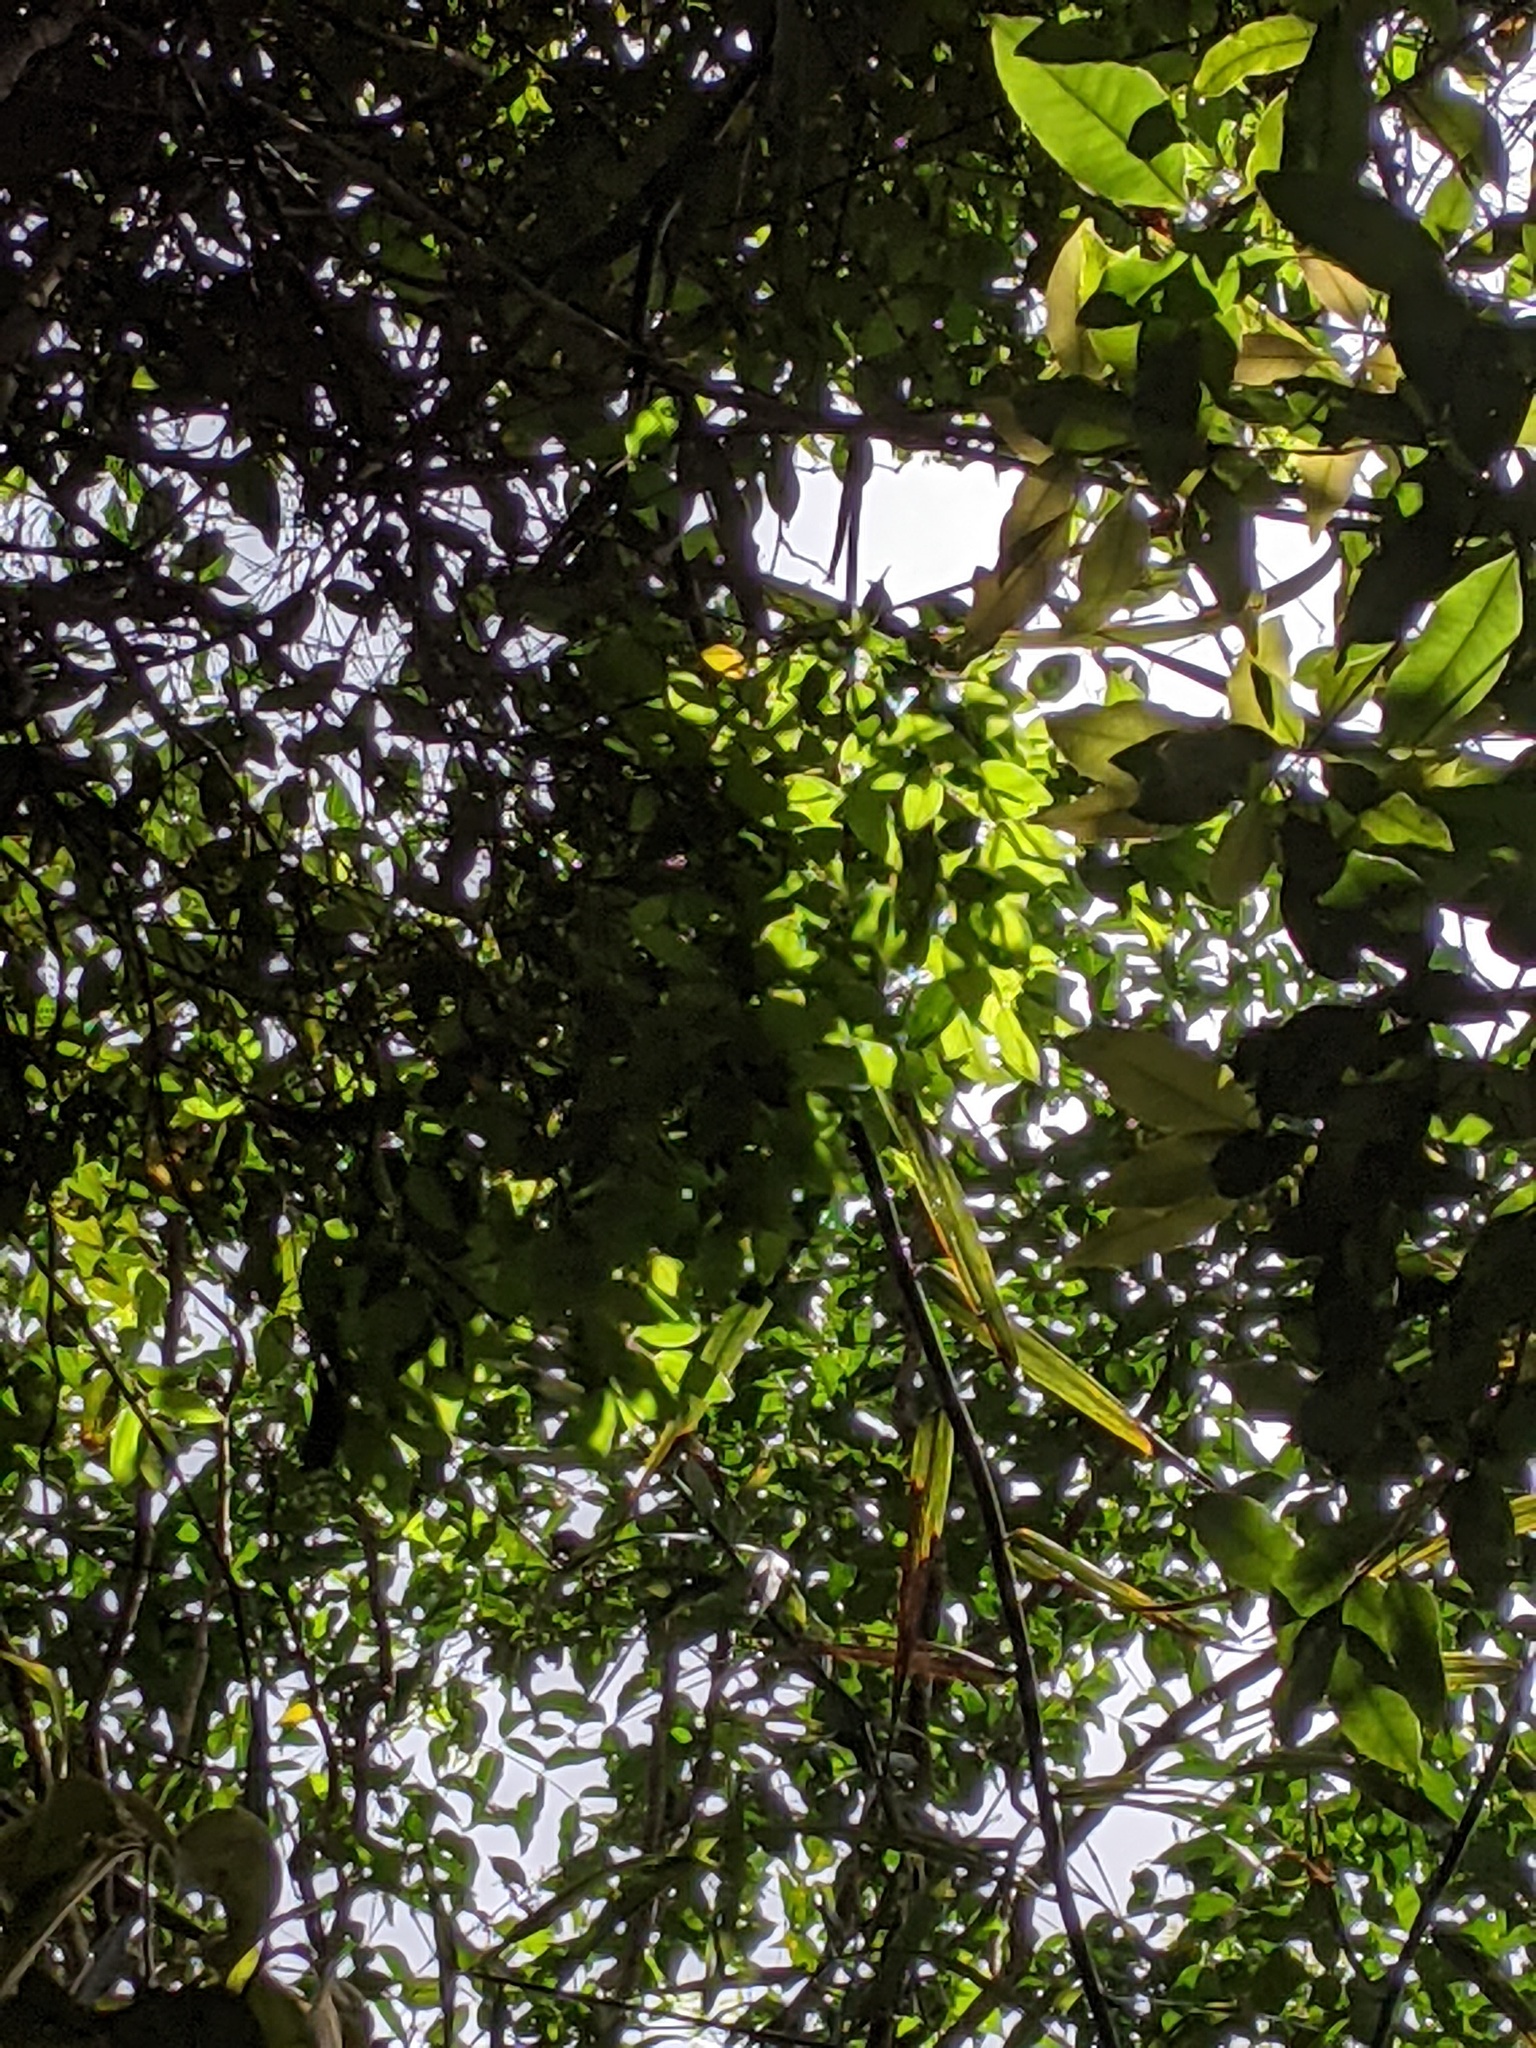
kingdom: Plantae
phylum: Tracheophyta
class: Magnoliopsida
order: Myrtales
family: Myrtaceae
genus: Rhodamnia
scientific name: Rhodamnia rubescens
